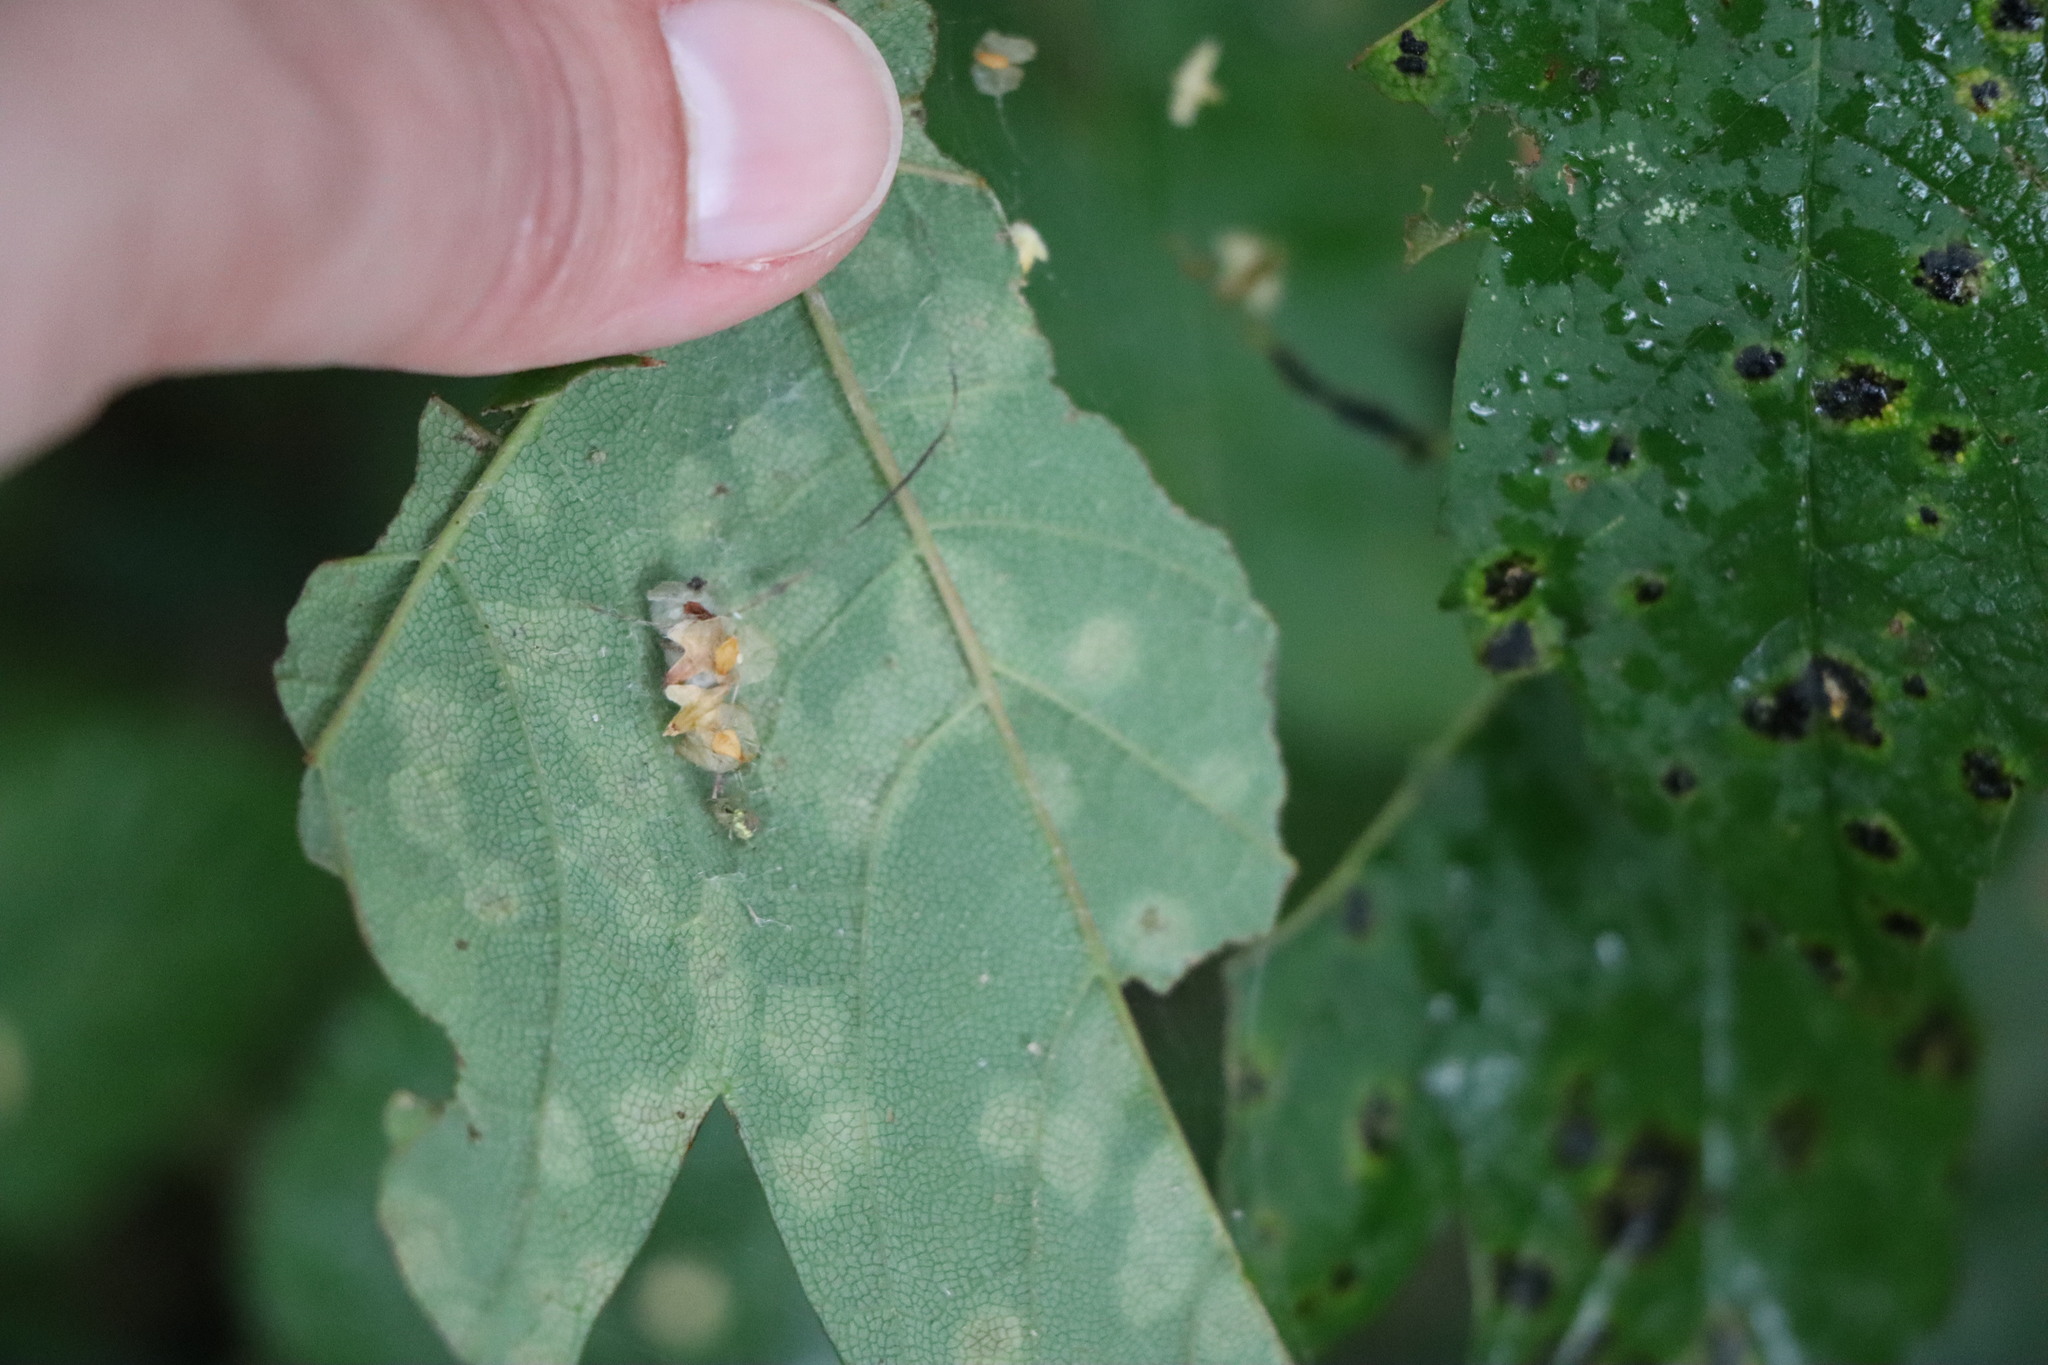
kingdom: Fungi
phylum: Ascomycota
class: Leotiomycetes
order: Rhytismatales
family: Rhytismataceae
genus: Rhytisma
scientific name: Rhytisma acerinum
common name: European tar spot
